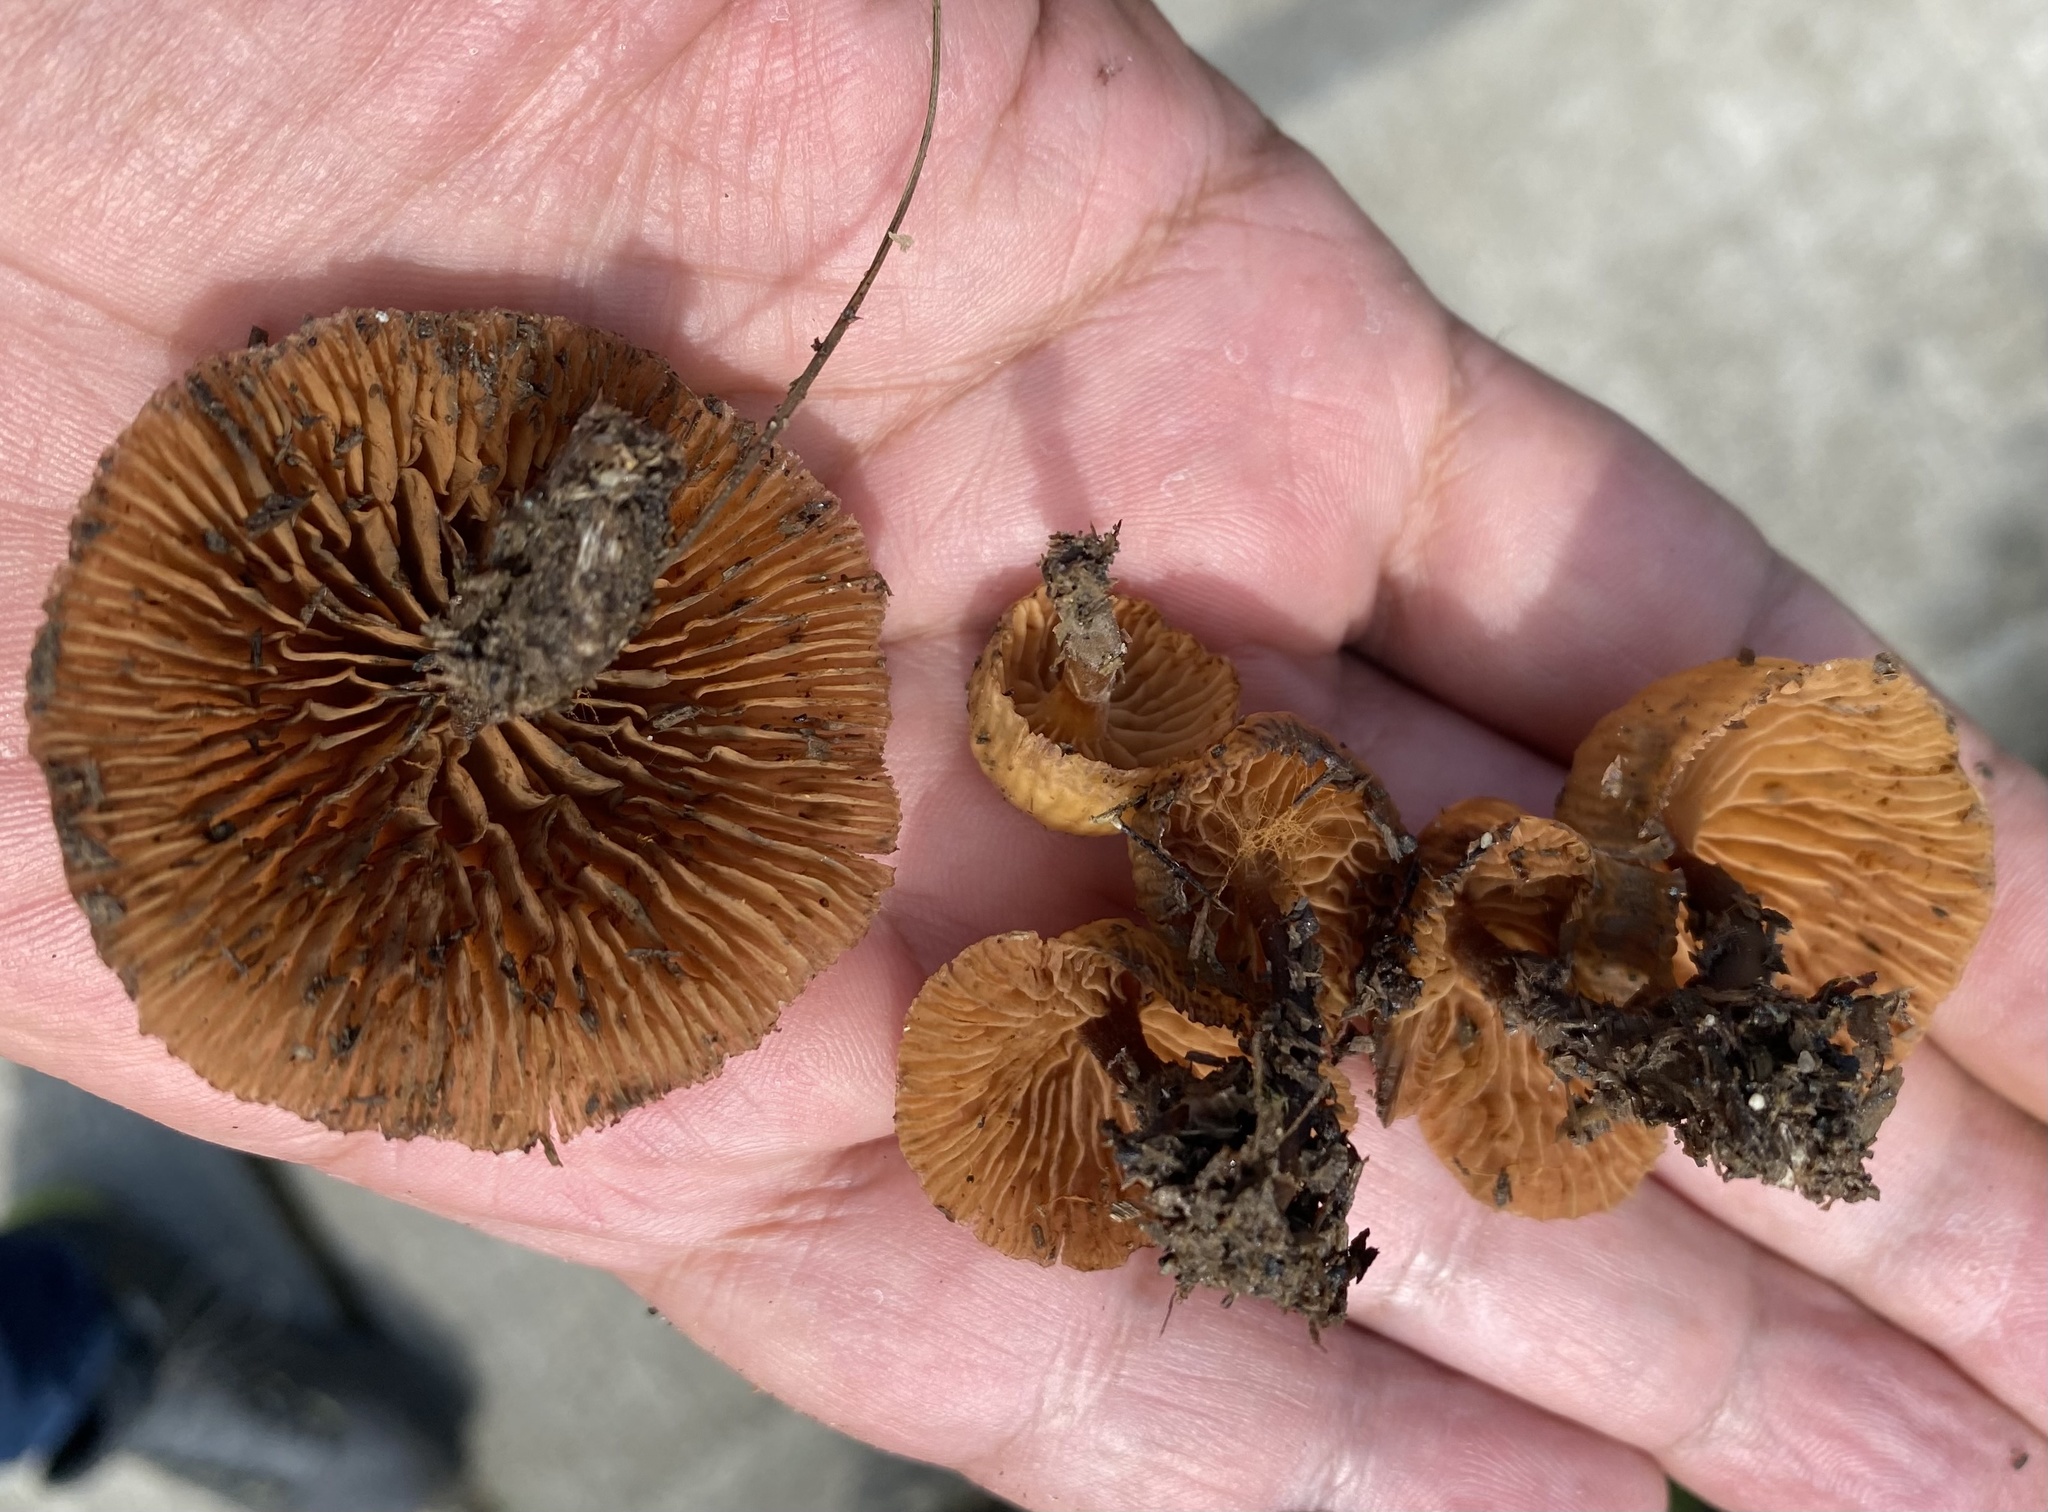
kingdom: Fungi
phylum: Basidiomycota
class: Agaricomycetes
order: Agaricales
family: Hymenogastraceae
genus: Galerina
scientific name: Galerina velutipes
